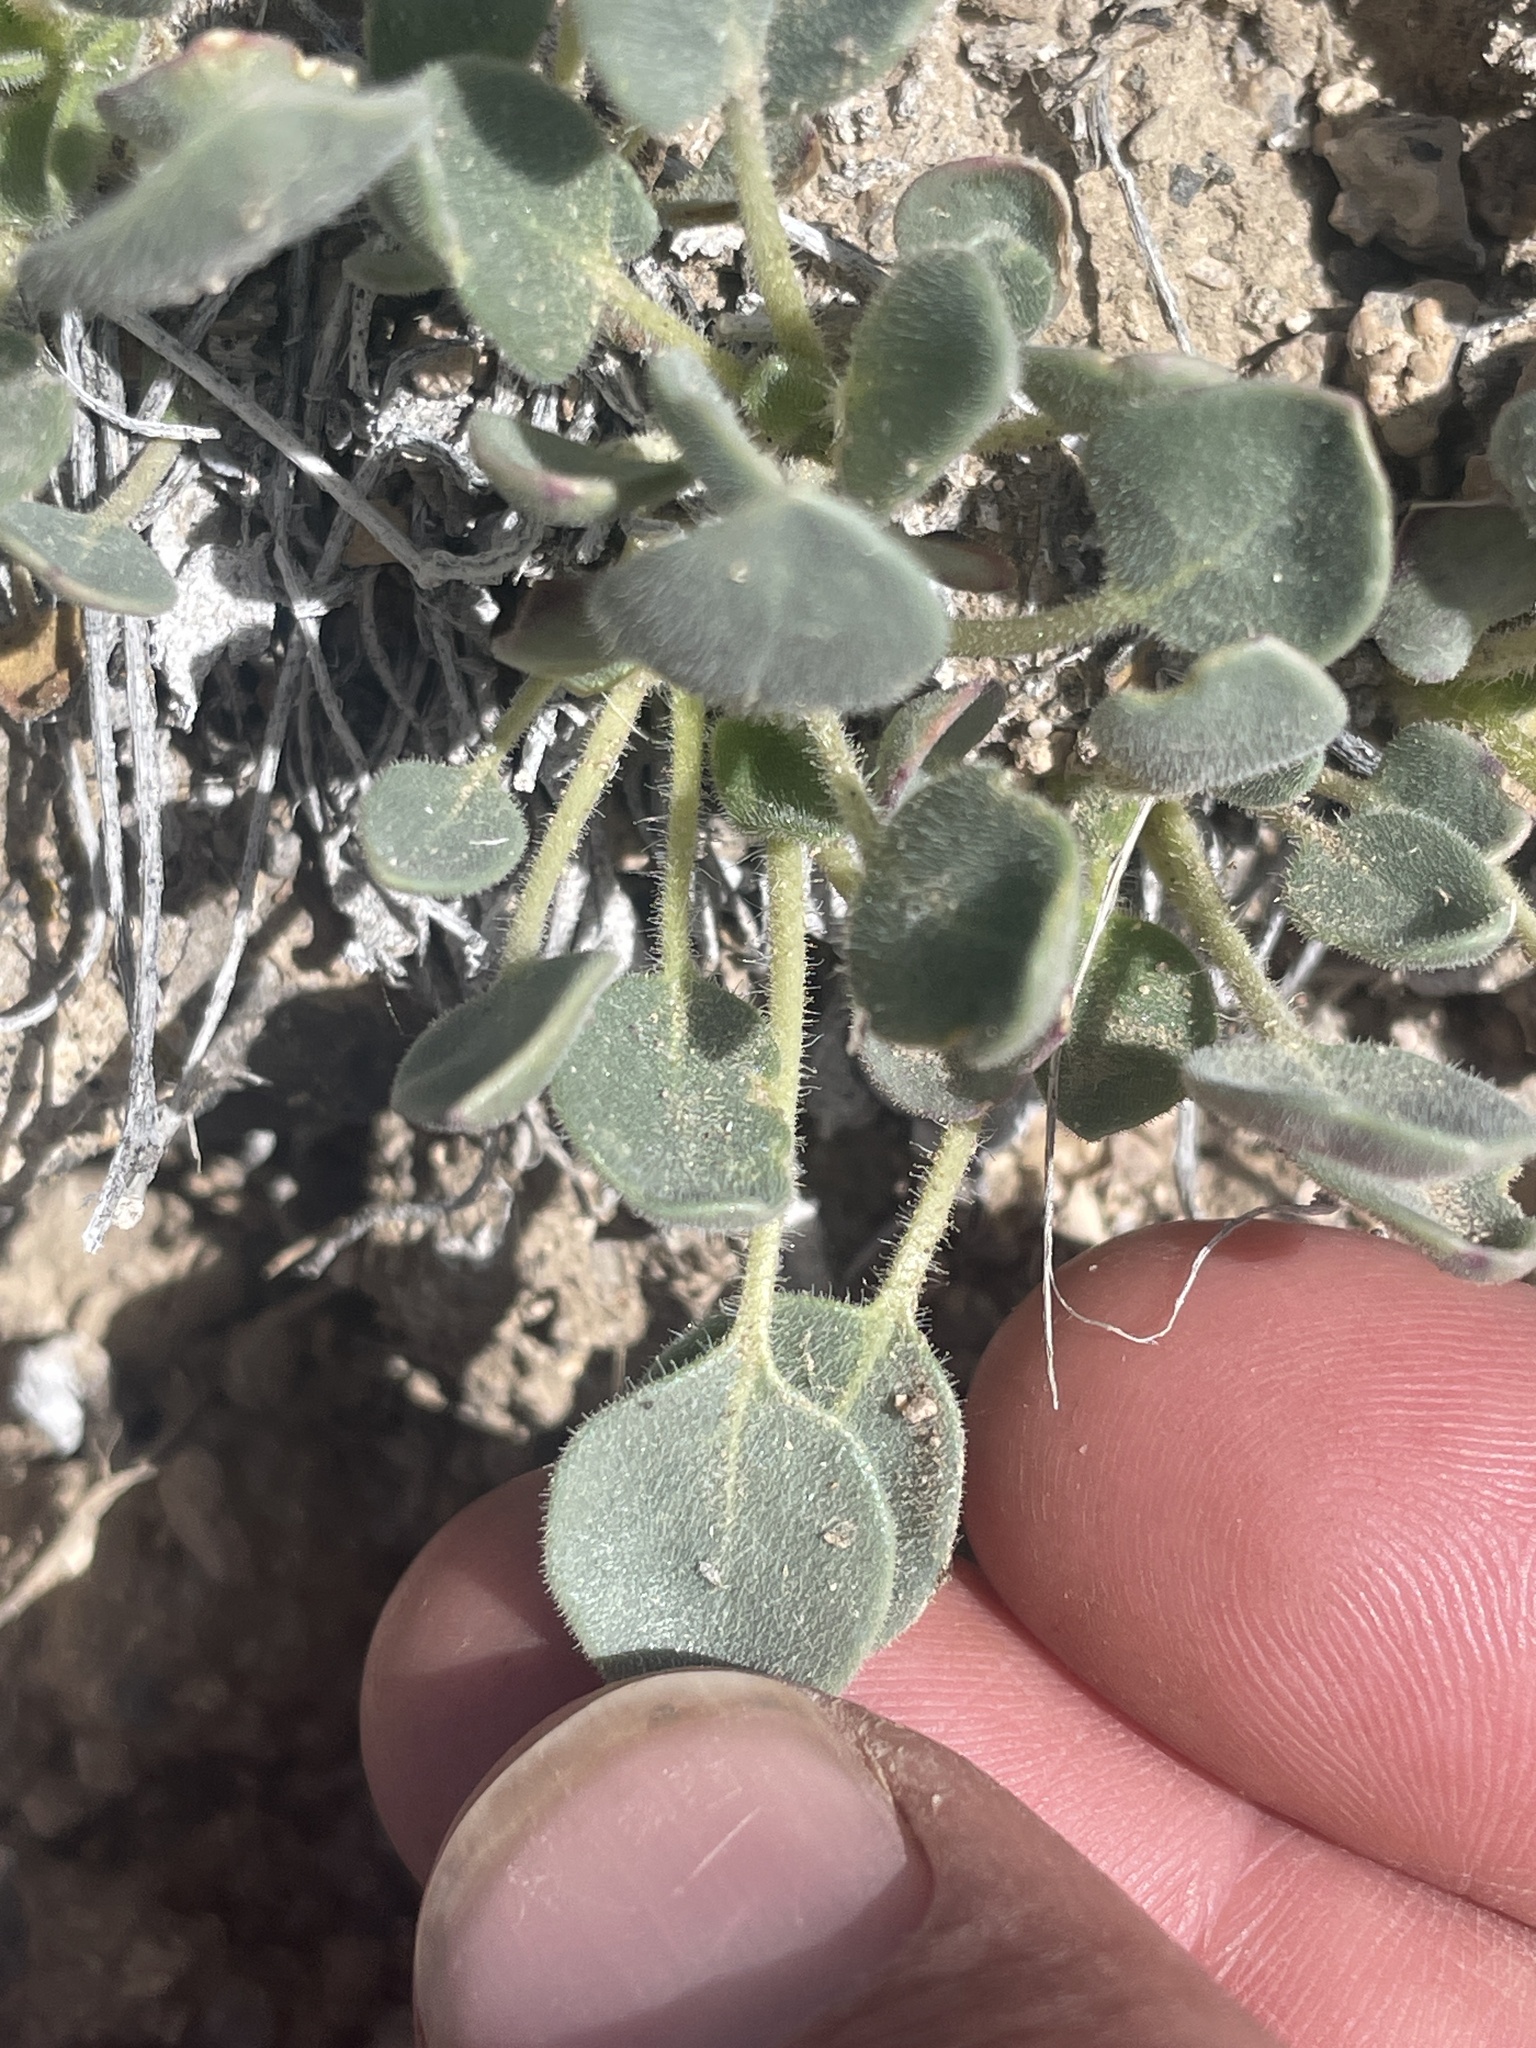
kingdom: Plantae
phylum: Tracheophyta
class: Magnoliopsida
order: Caryophyllales
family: Nyctaginaceae
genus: Abronia
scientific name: Abronia nana
